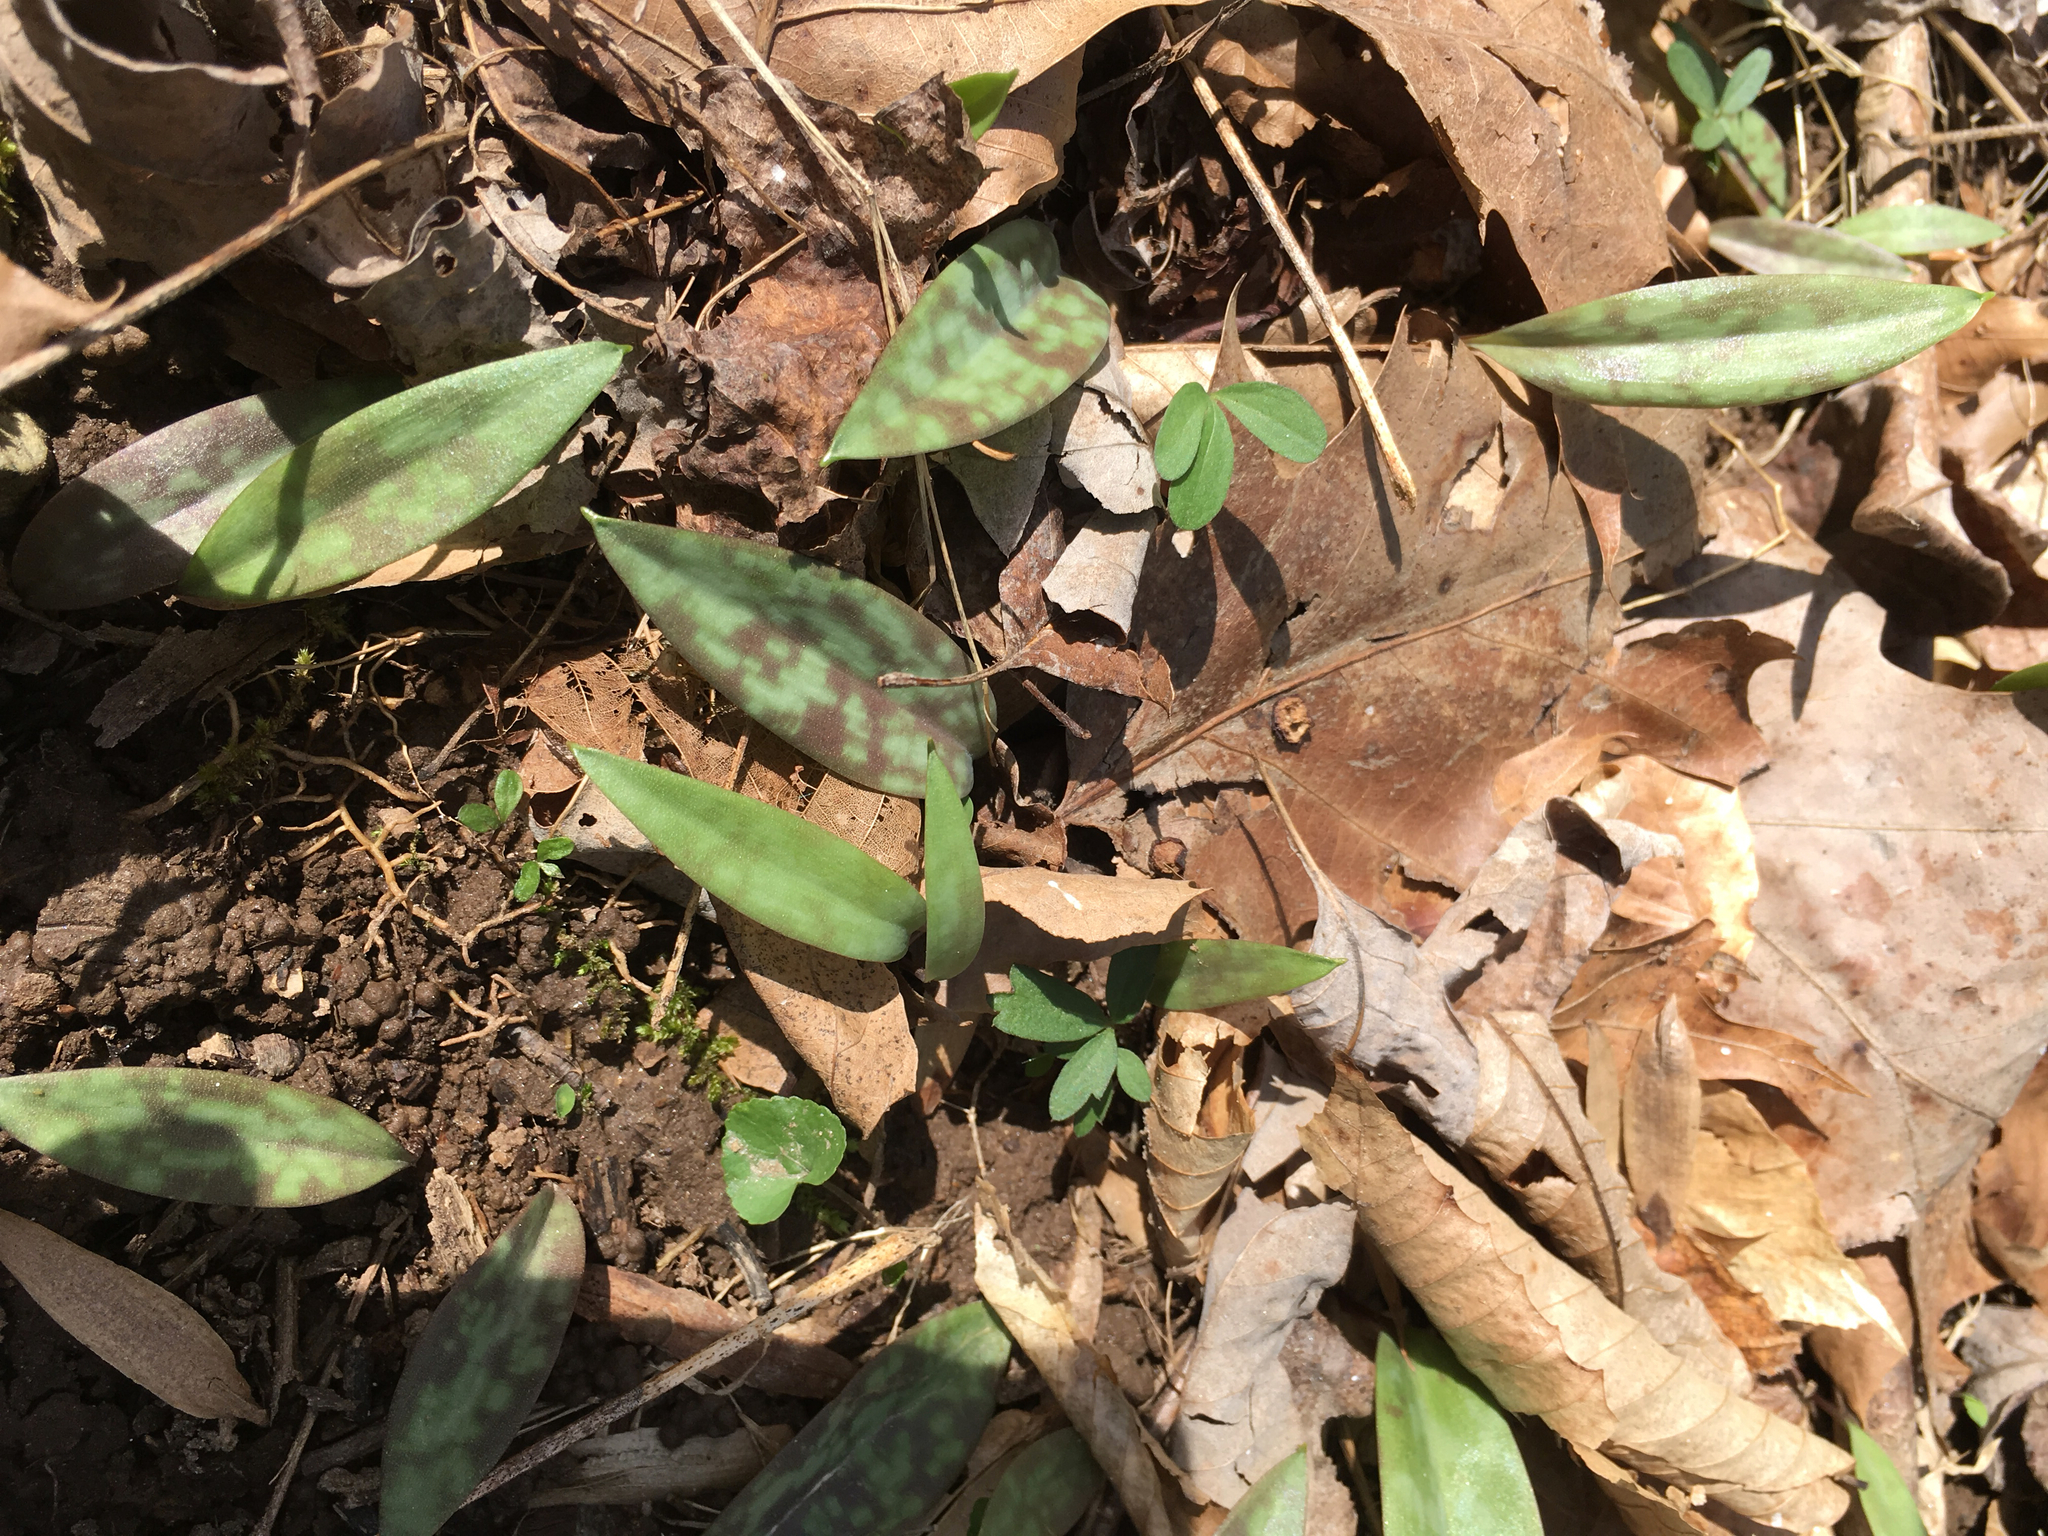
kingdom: Plantae
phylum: Tracheophyta
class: Liliopsida
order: Liliales
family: Liliaceae
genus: Erythronium
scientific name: Erythronium americanum
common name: Yellow adder's-tongue
